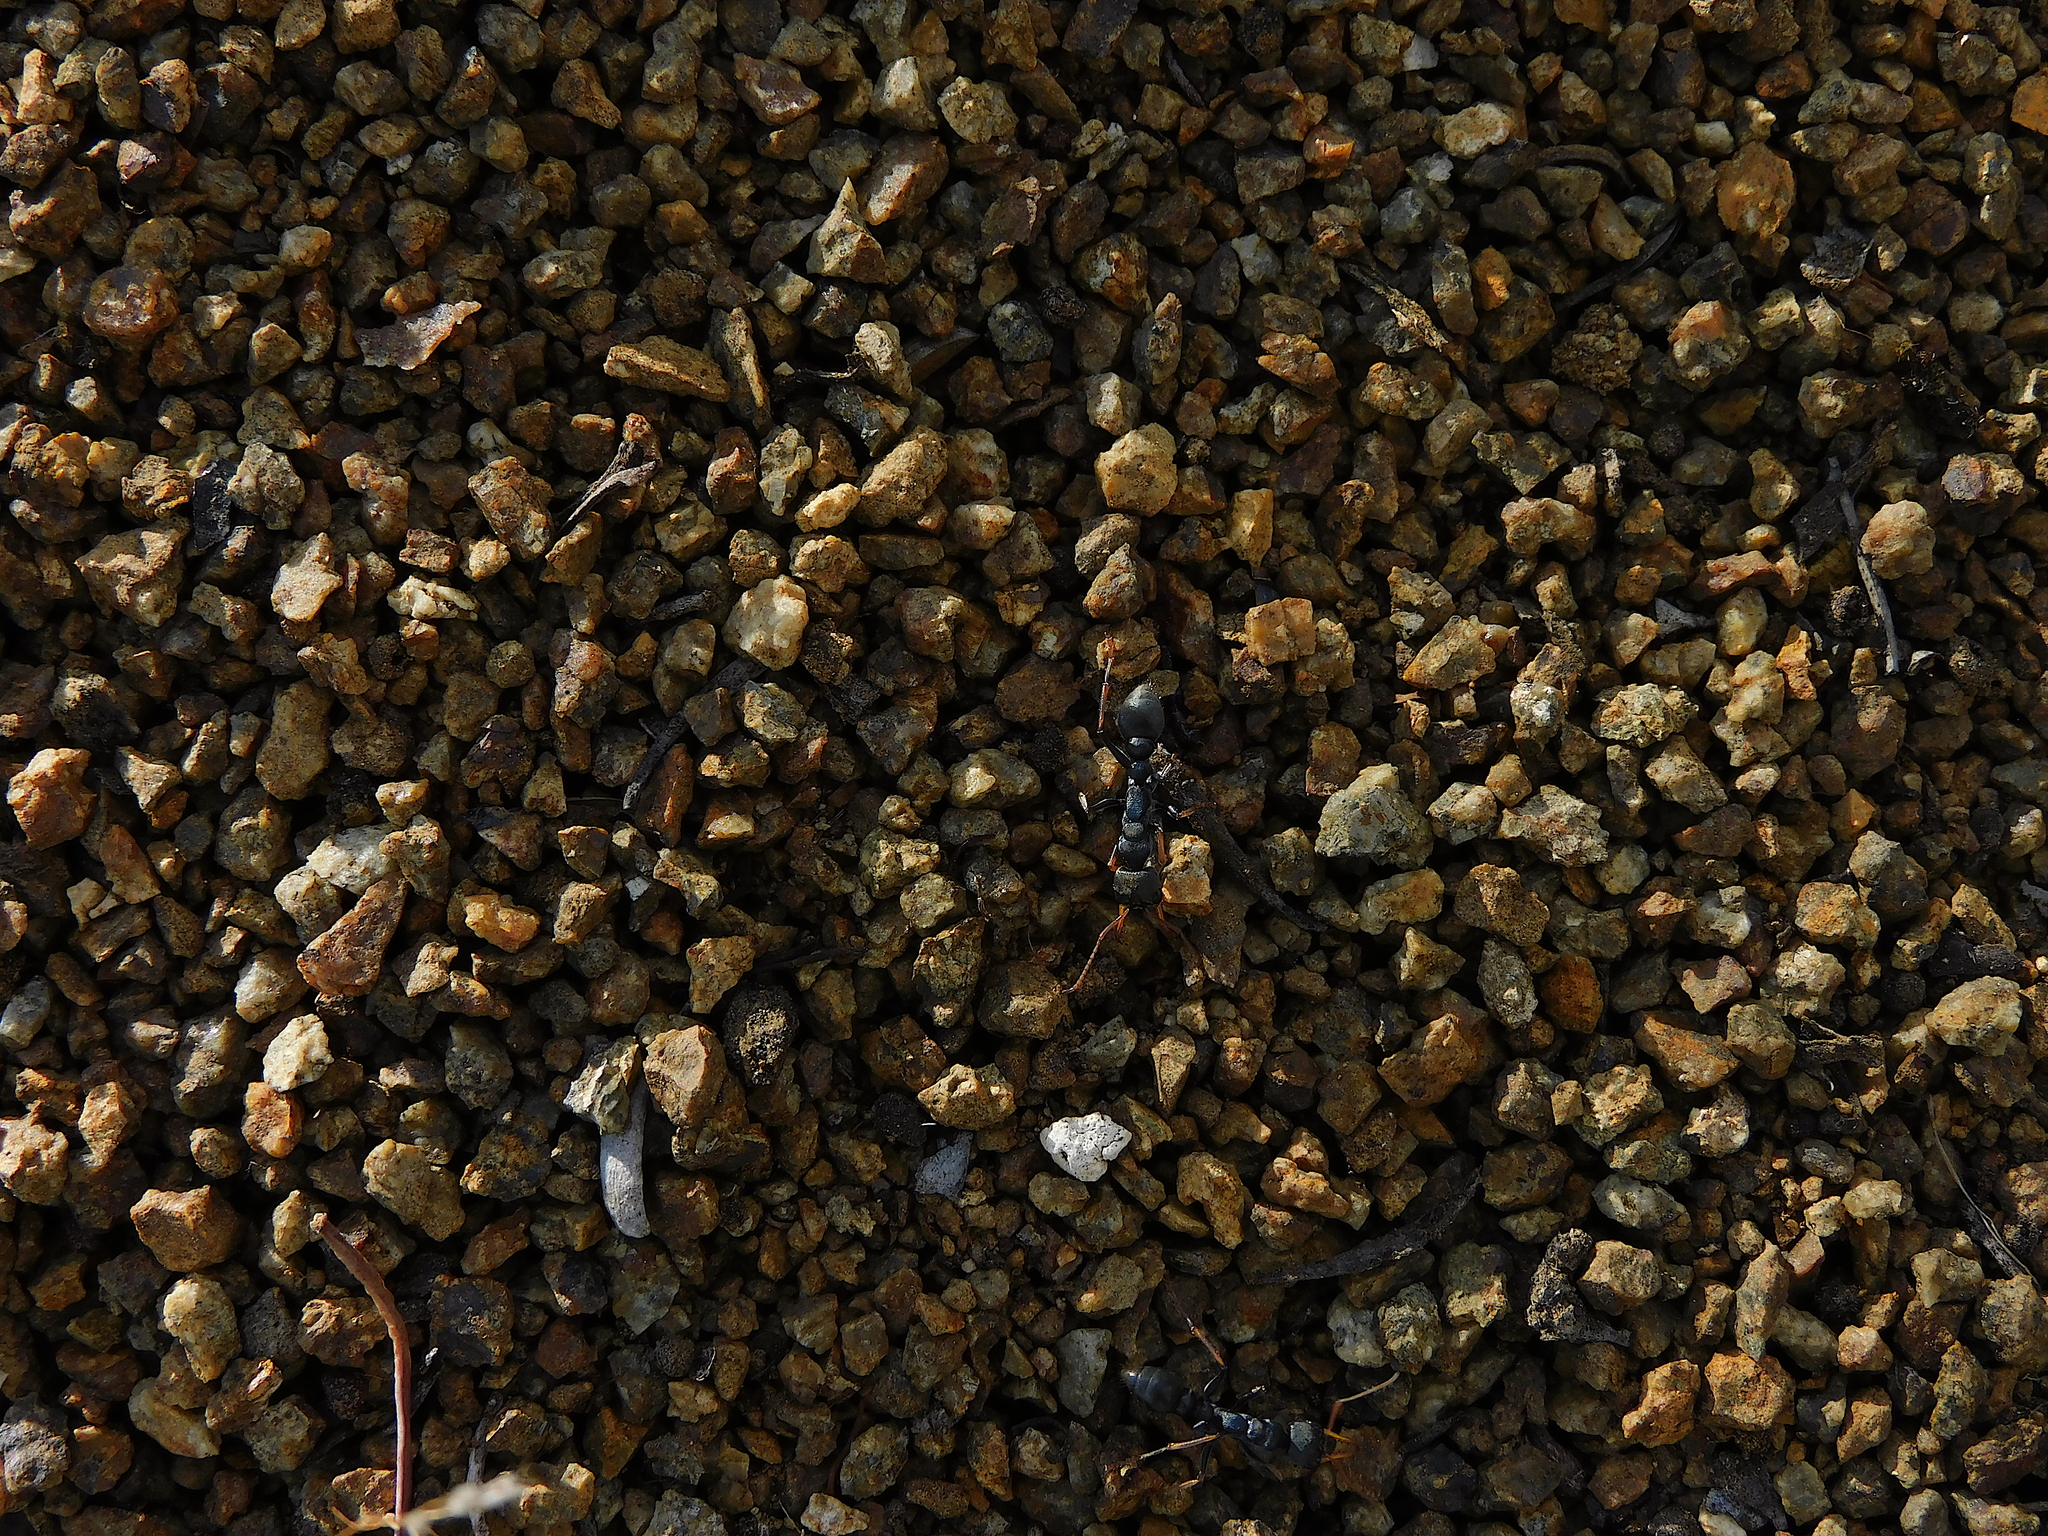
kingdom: Animalia
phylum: Arthropoda
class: Insecta
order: Hymenoptera
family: Formicidae
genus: Myrmecia
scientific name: Myrmecia pilosula
